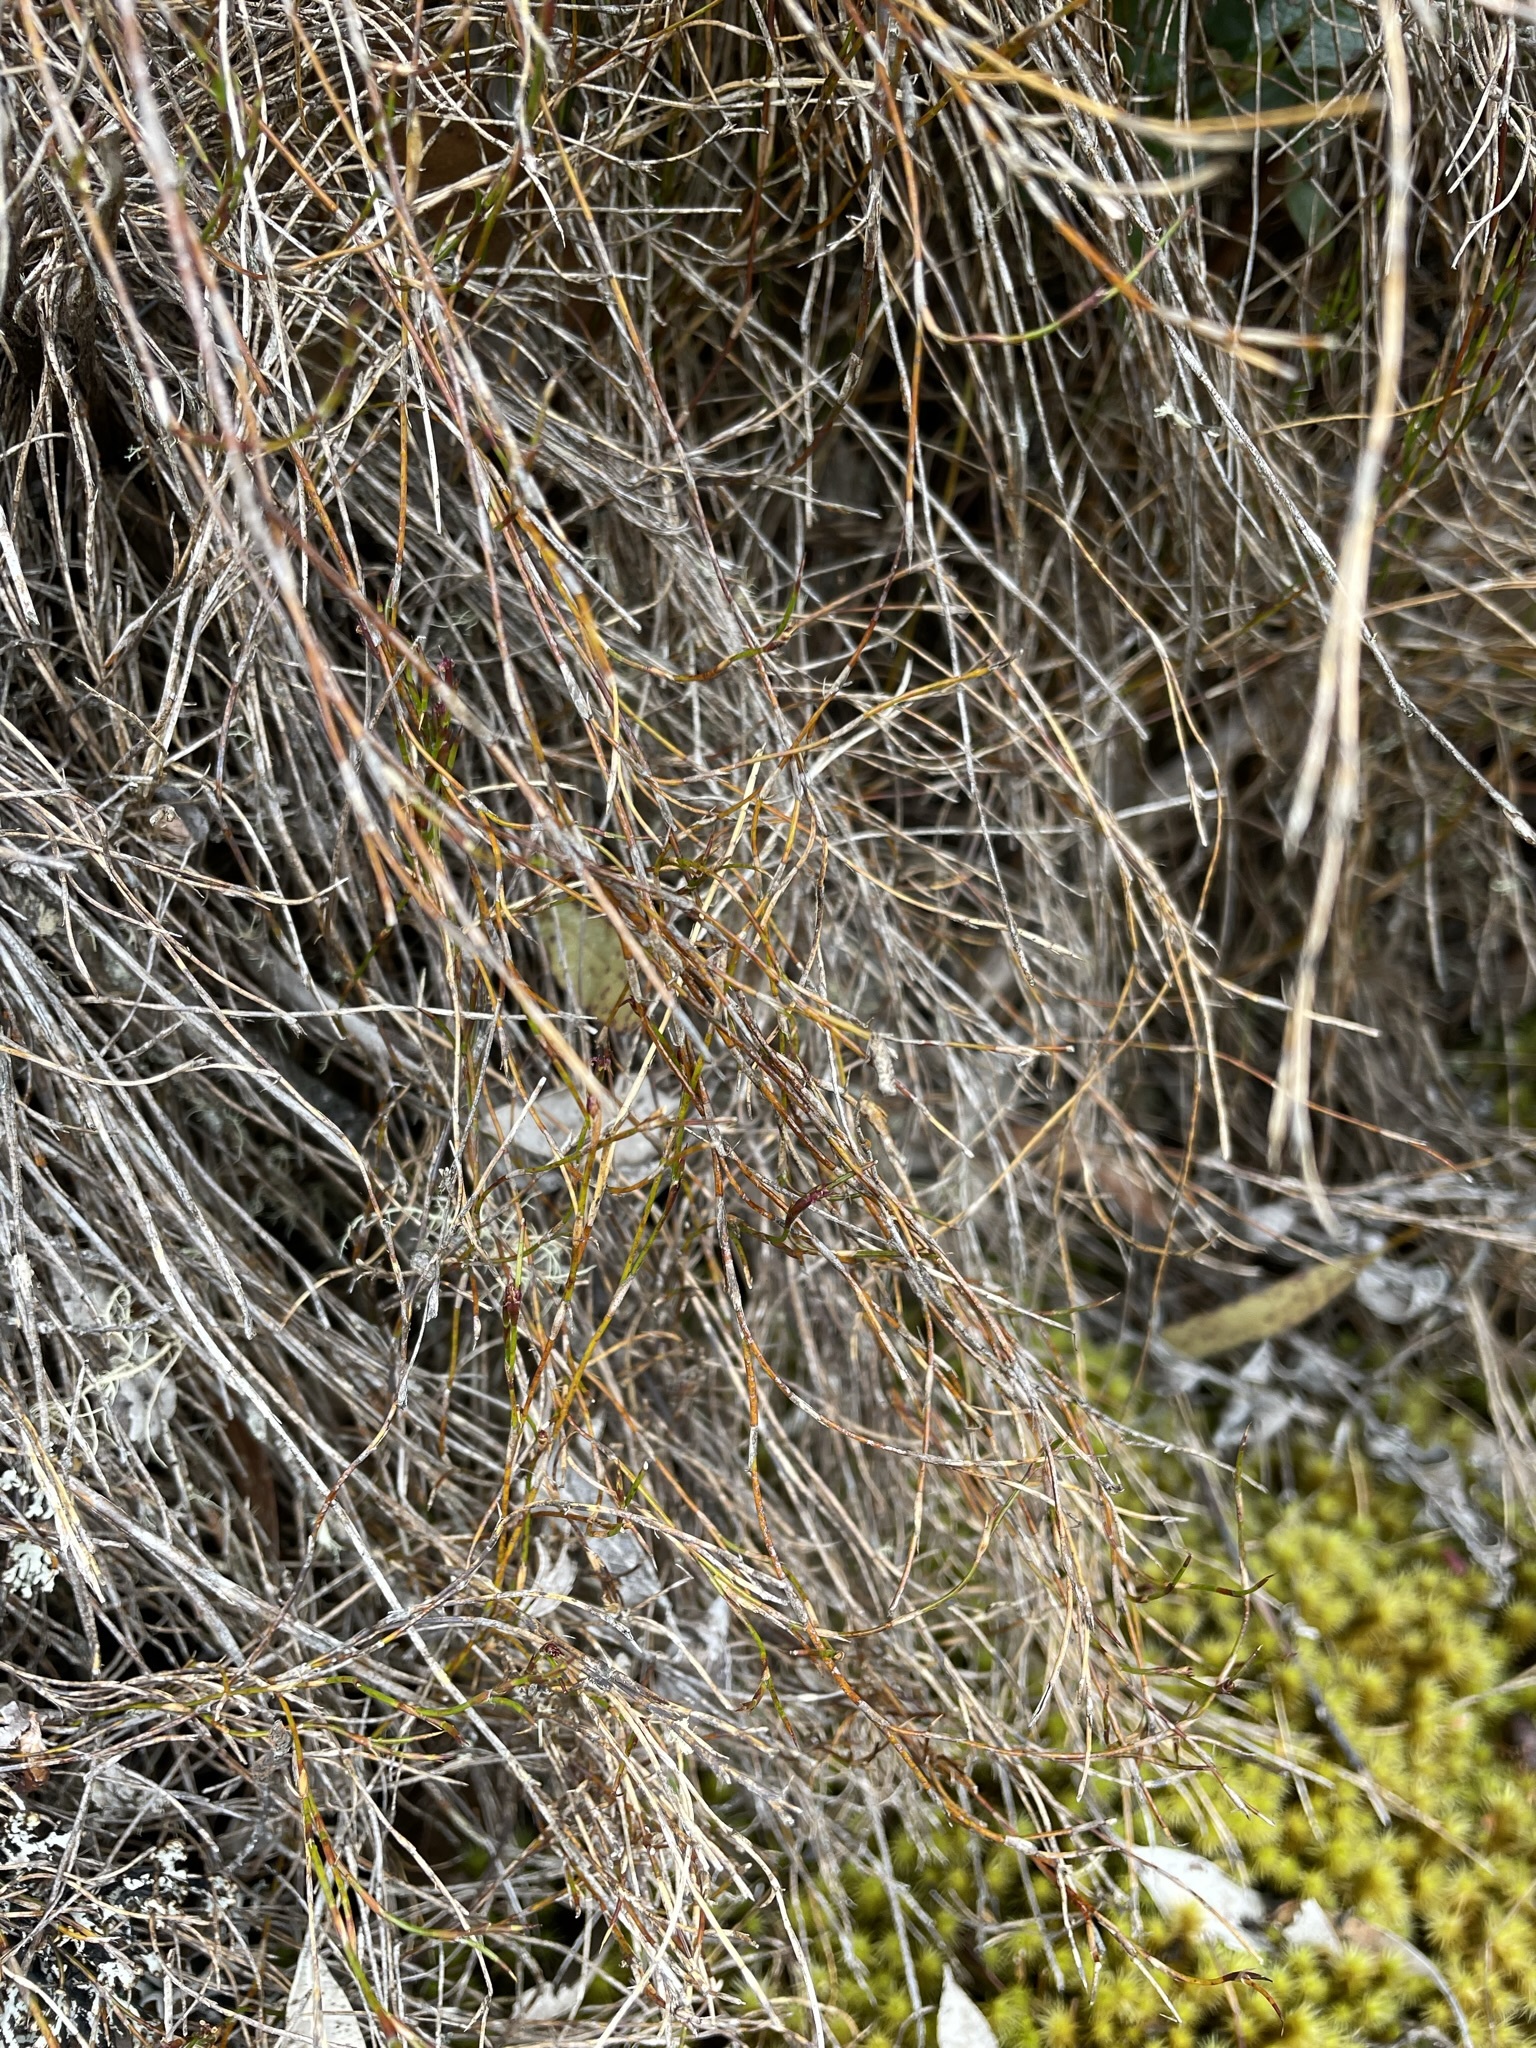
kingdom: Plantae
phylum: Tracheophyta
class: Liliopsida
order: Poales
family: Restionaceae
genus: Empodisma
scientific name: Empodisma minus
